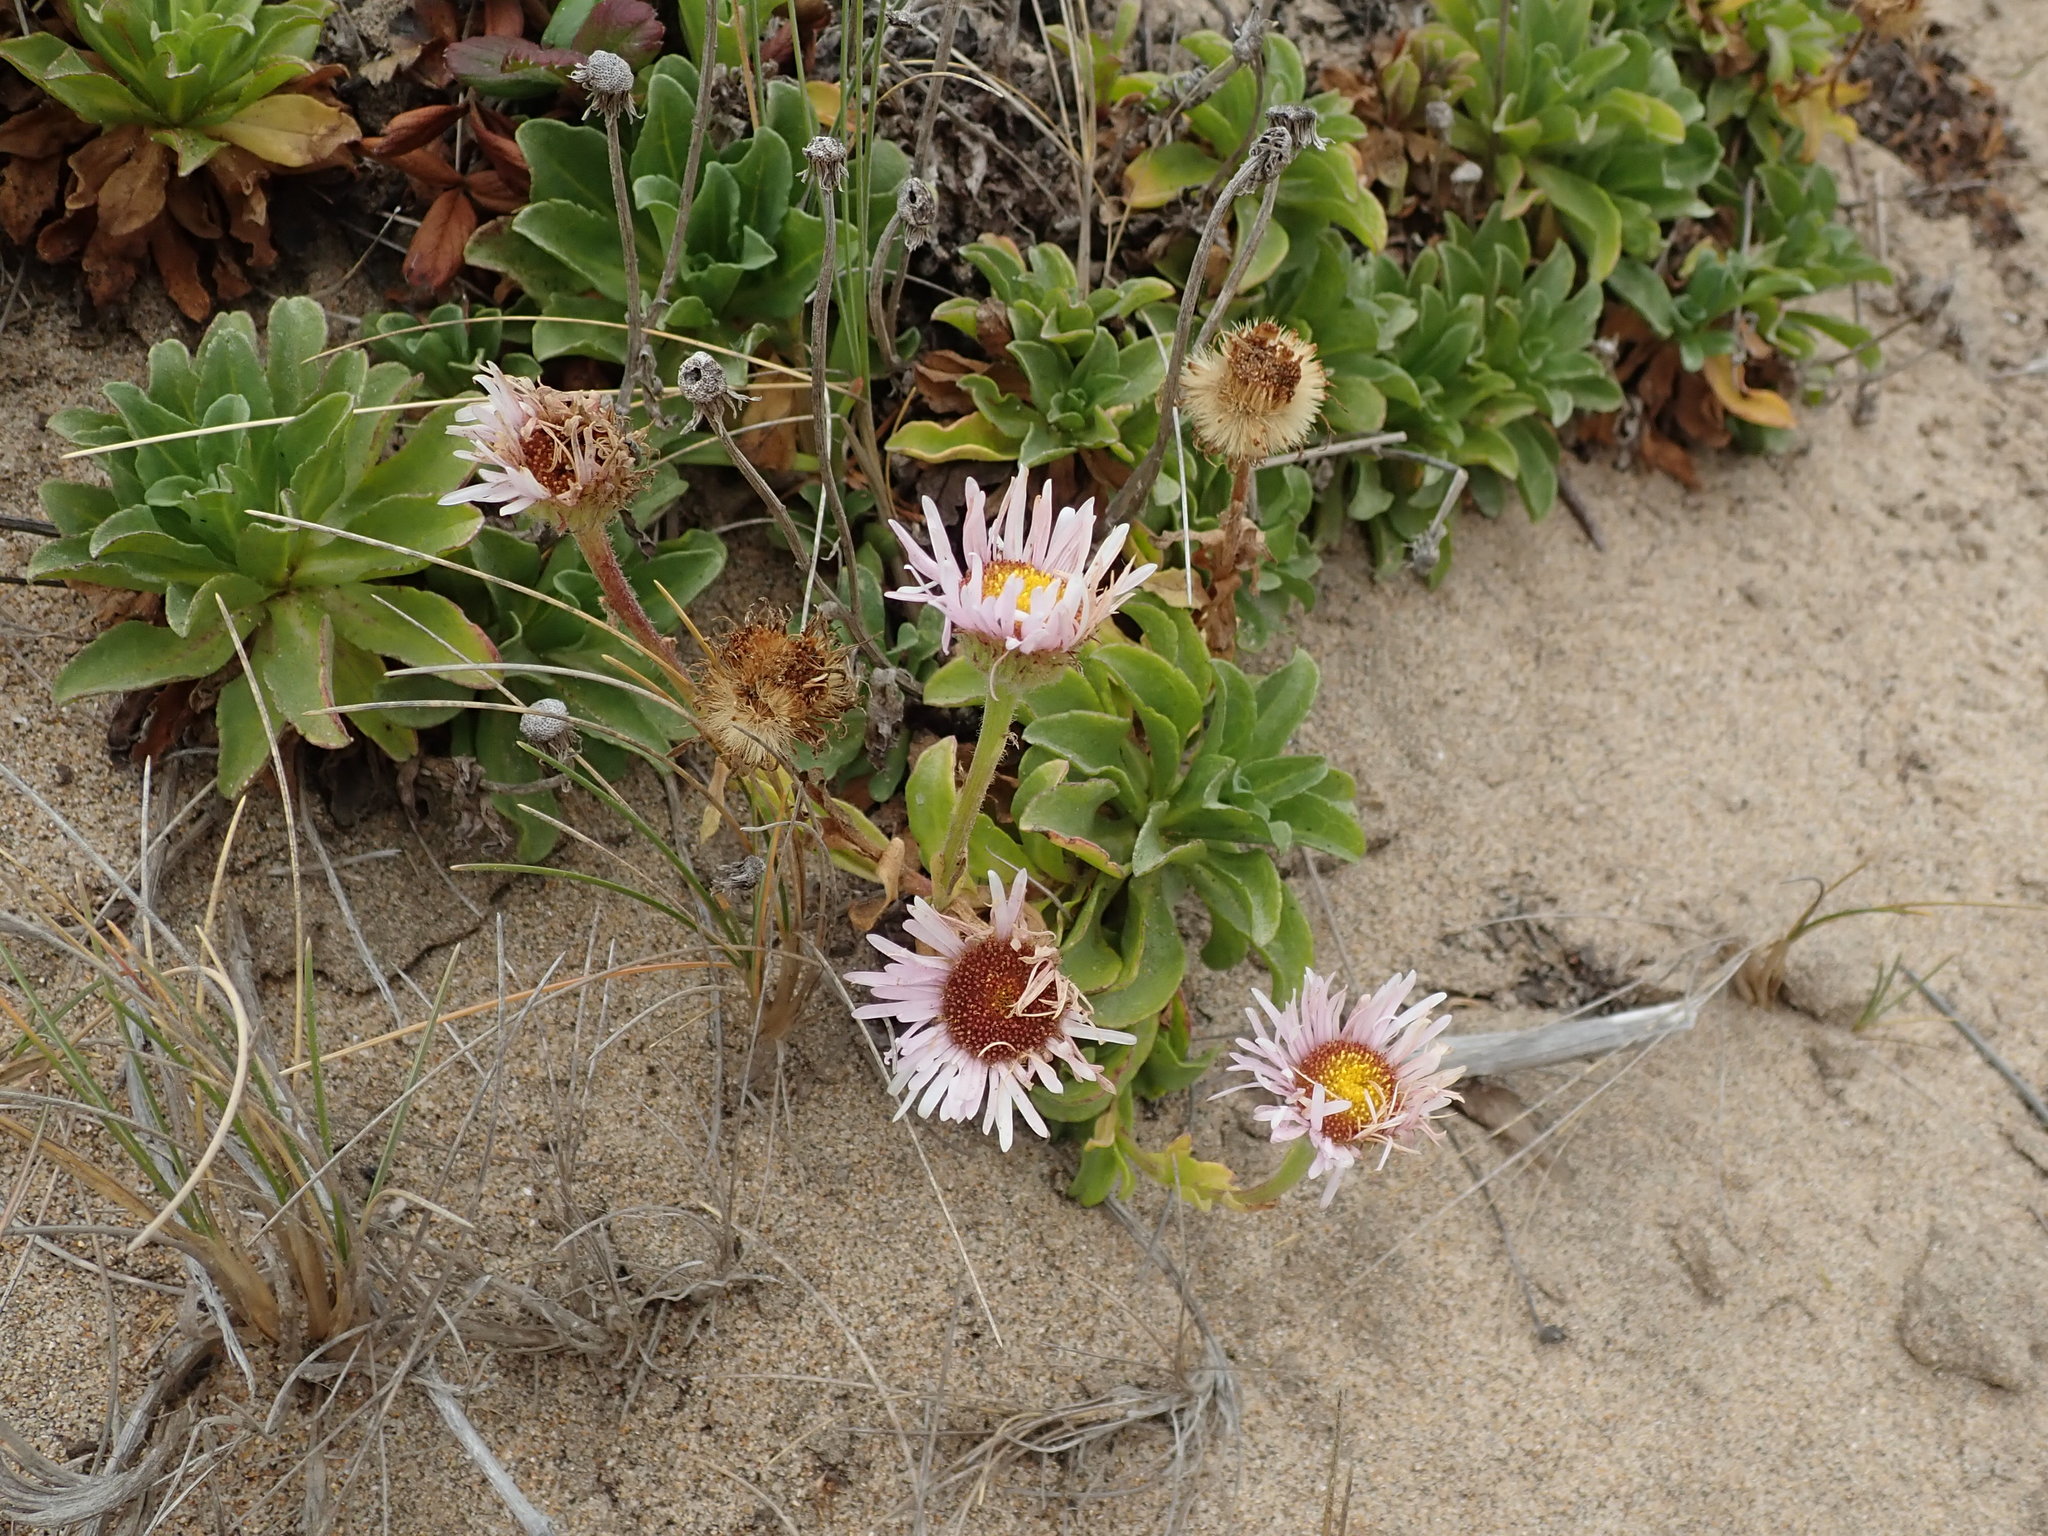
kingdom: Plantae
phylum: Tracheophyta
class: Magnoliopsida
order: Asterales
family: Asteraceae
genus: Erigeron
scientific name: Erigeron glaucus
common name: Seaside daisy
